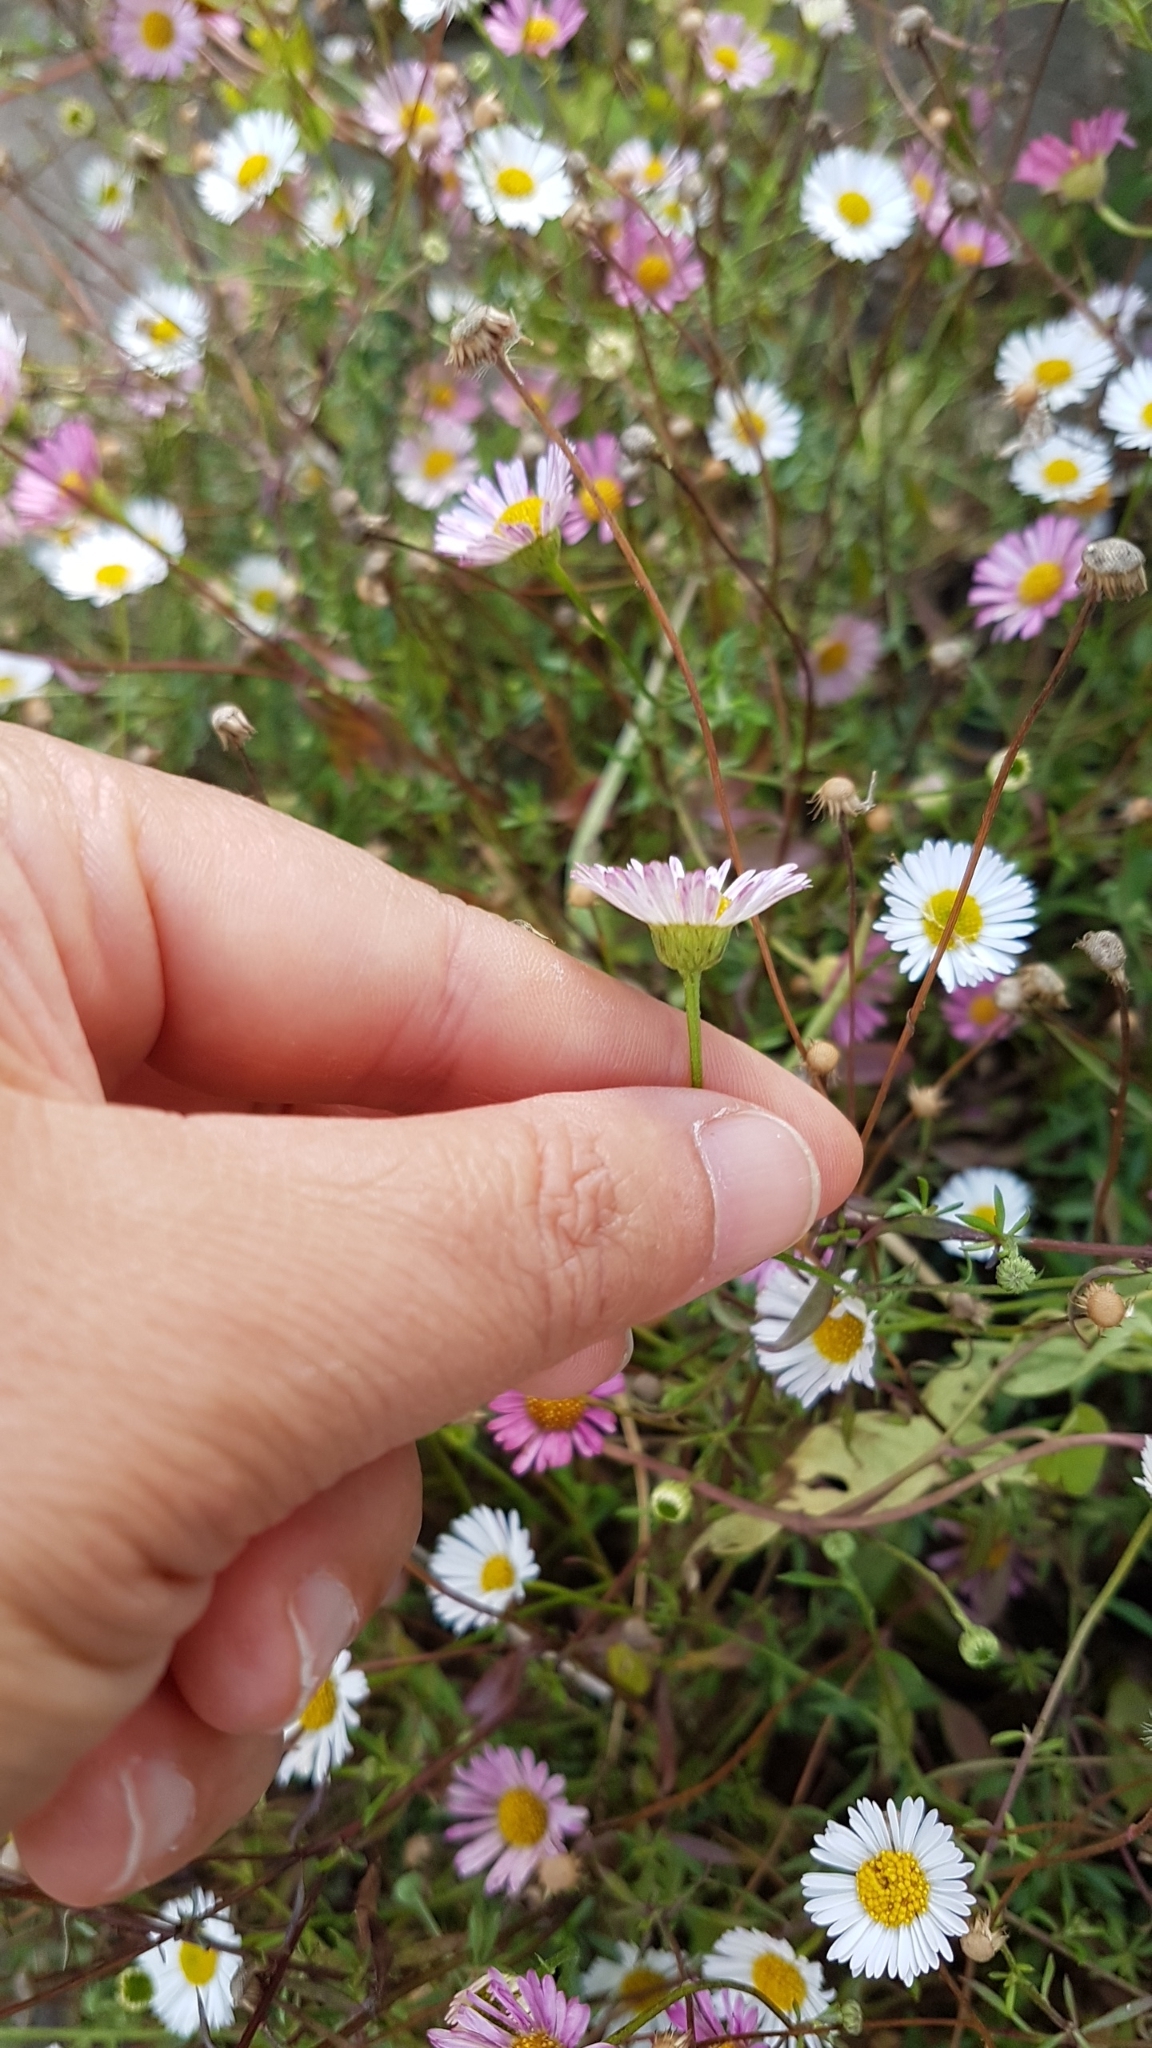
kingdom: Plantae
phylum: Tracheophyta
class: Magnoliopsida
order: Asterales
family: Asteraceae
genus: Erigeron
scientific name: Erigeron karvinskianus
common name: Mexican fleabane
